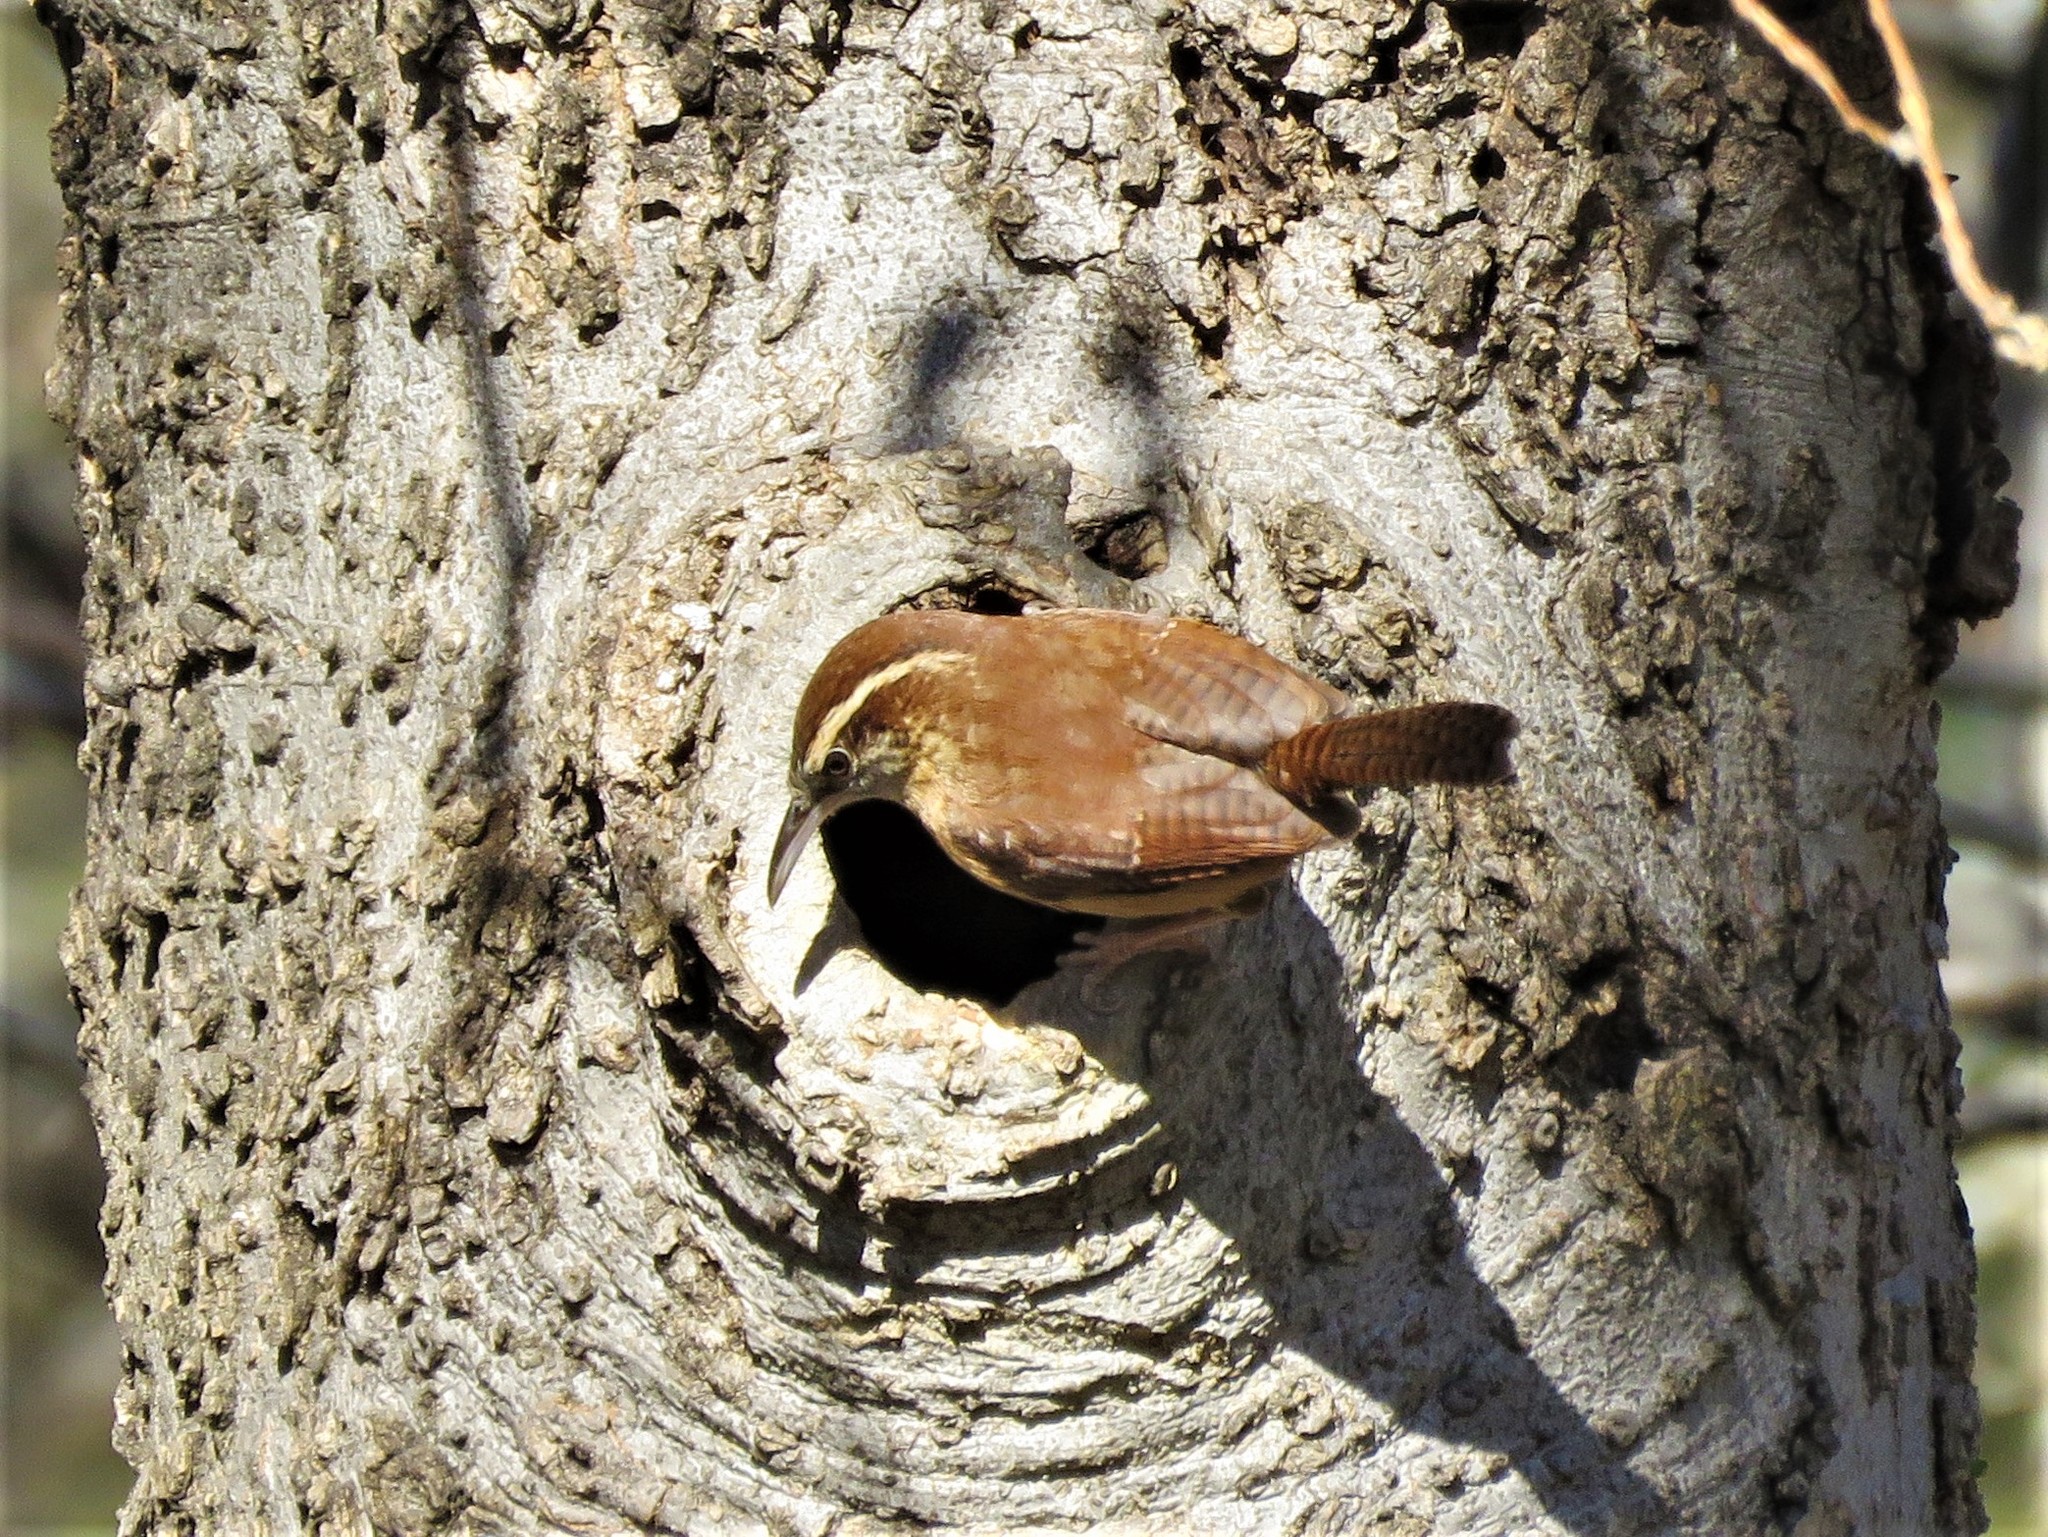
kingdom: Animalia
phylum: Chordata
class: Aves
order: Passeriformes
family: Troglodytidae
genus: Thryothorus
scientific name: Thryothorus ludovicianus
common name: Carolina wren
